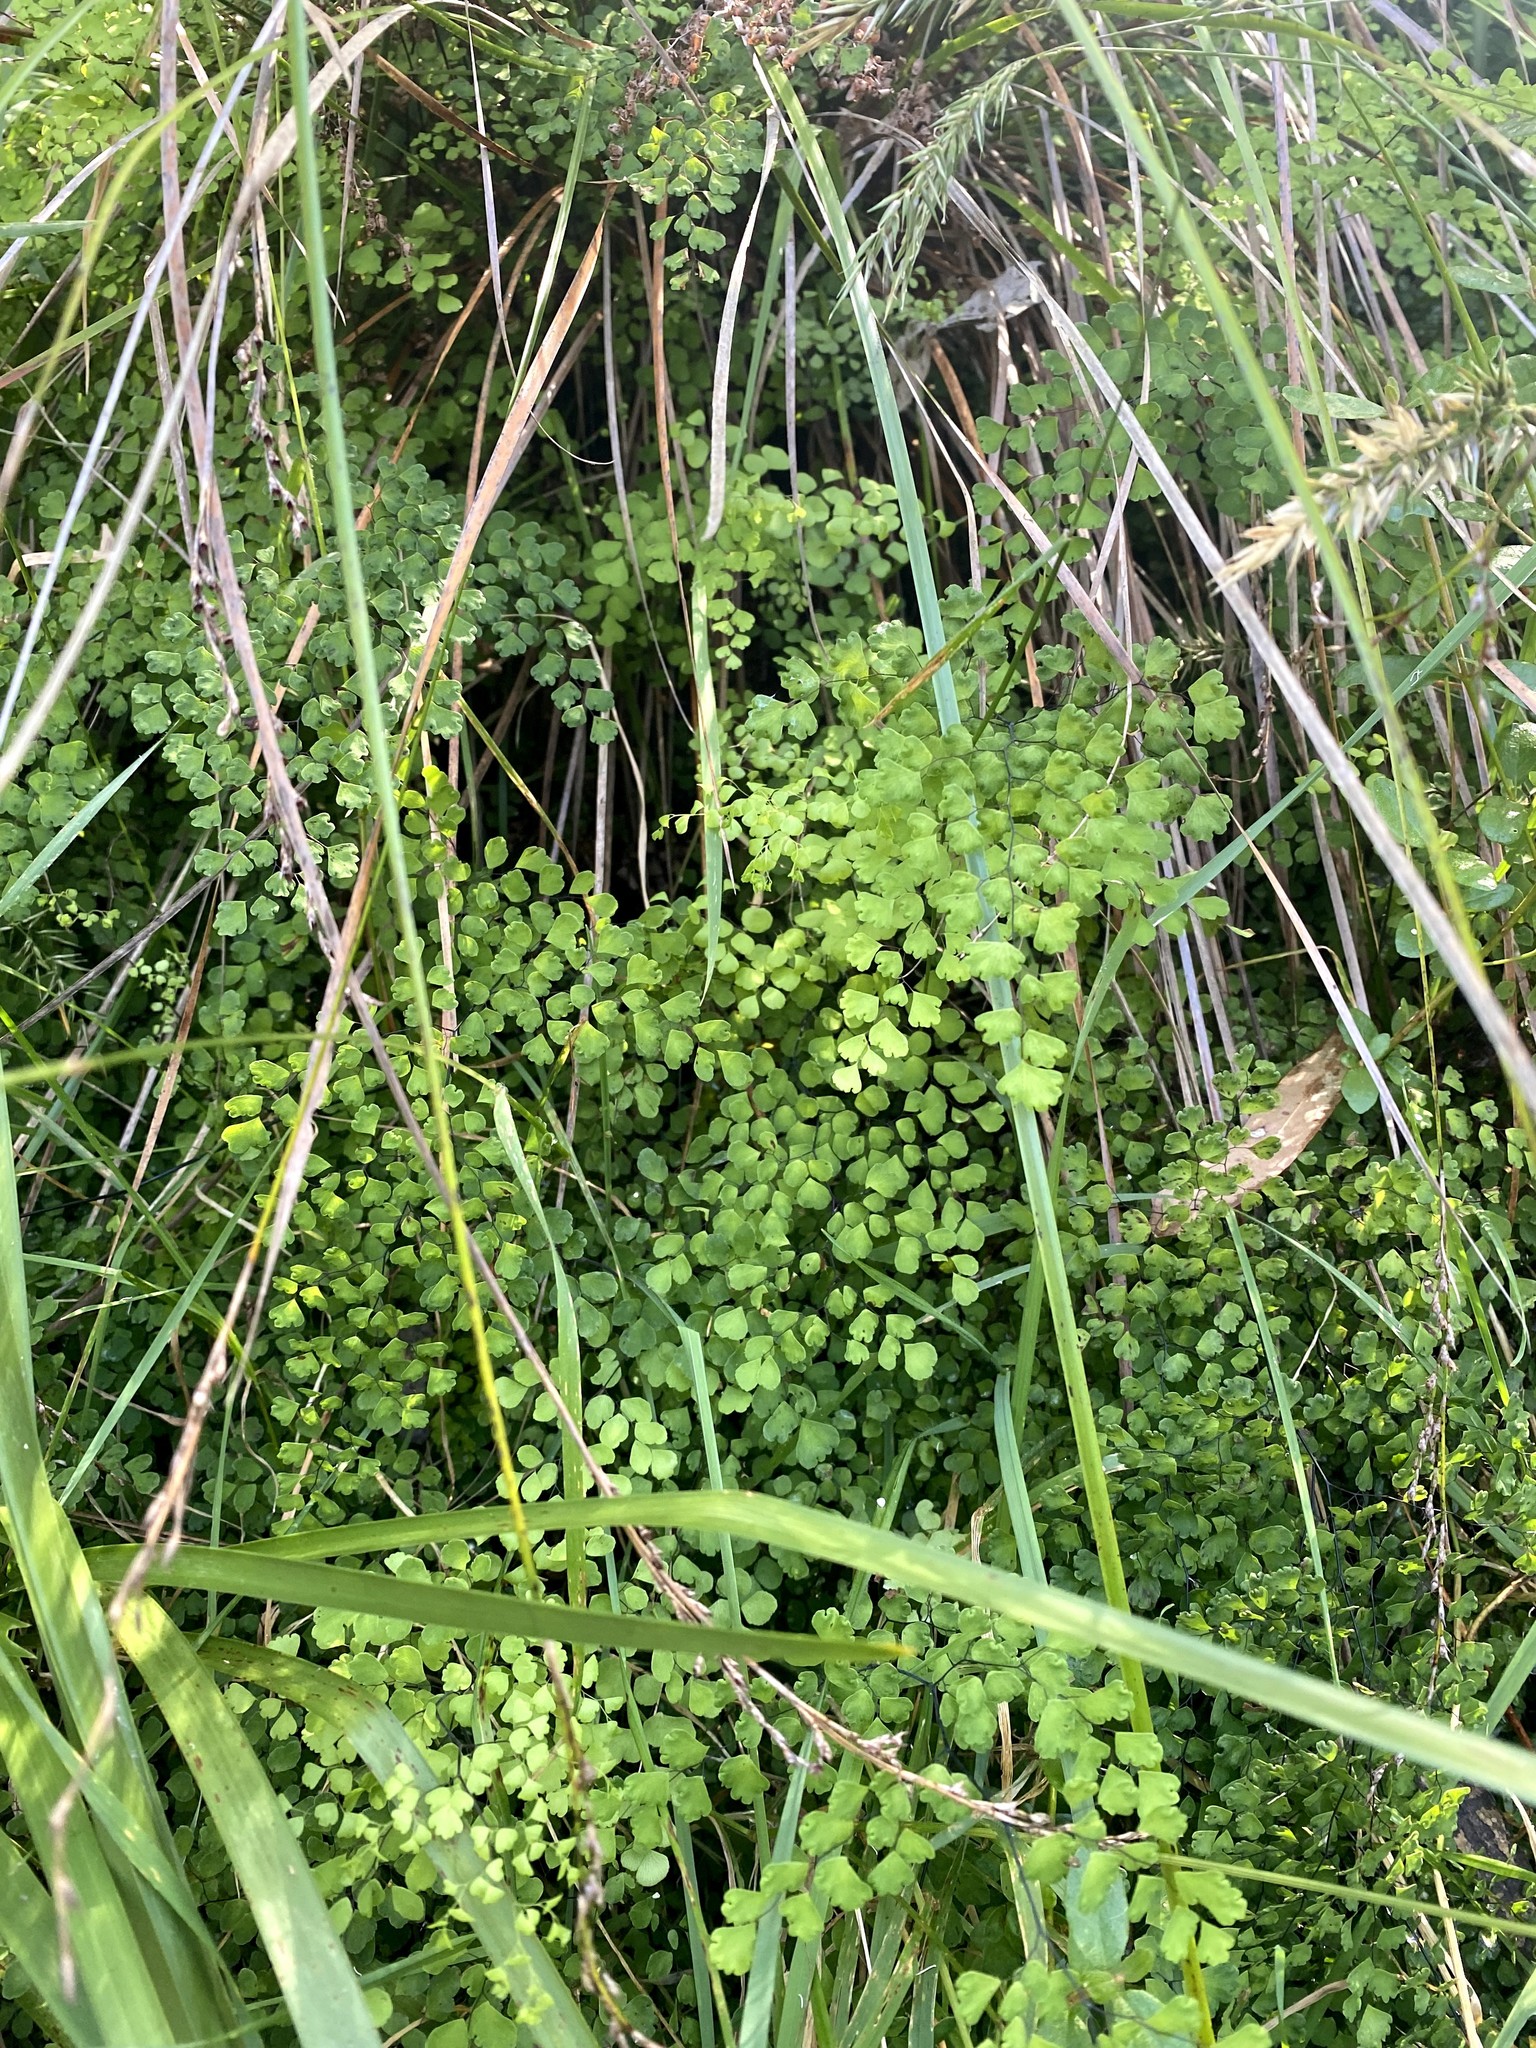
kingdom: Plantae
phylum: Tracheophyta
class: Polypodiopsida
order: Polypodiales
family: Pteridaceae
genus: Adiantum
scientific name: Adiantum aethiopicum
